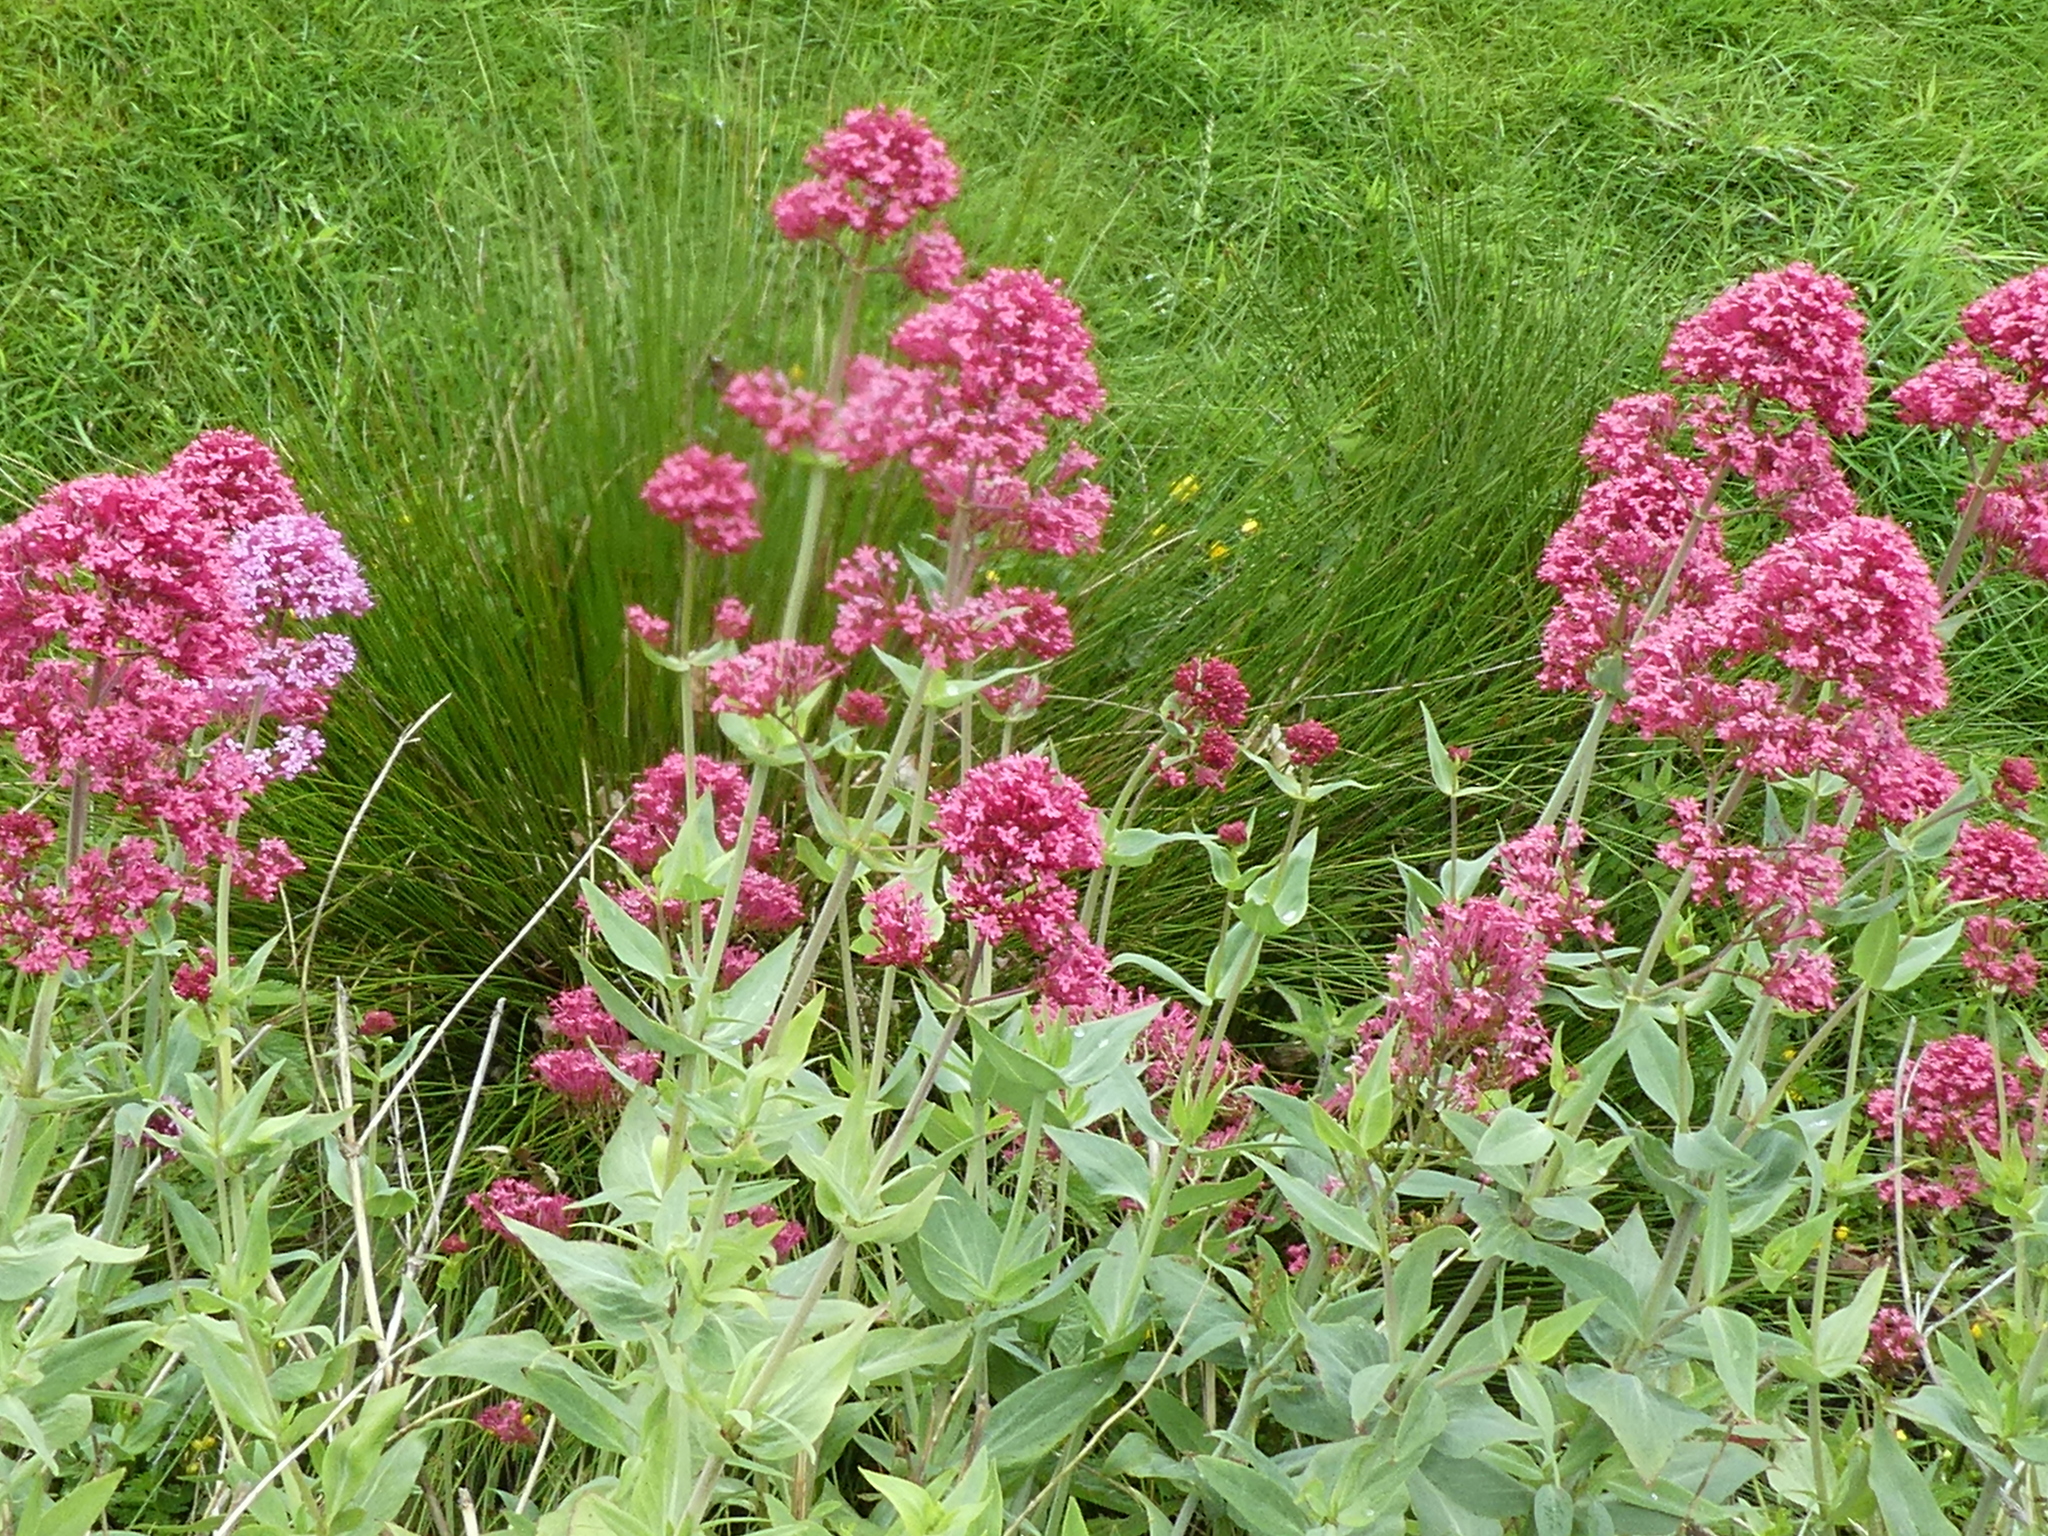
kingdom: Plantae
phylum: Tracheophyta
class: Magnoliopsida
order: Dipsacales
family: Caprifoliaceae
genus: Centranthus
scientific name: Centranthus ruber
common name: Red valerian
